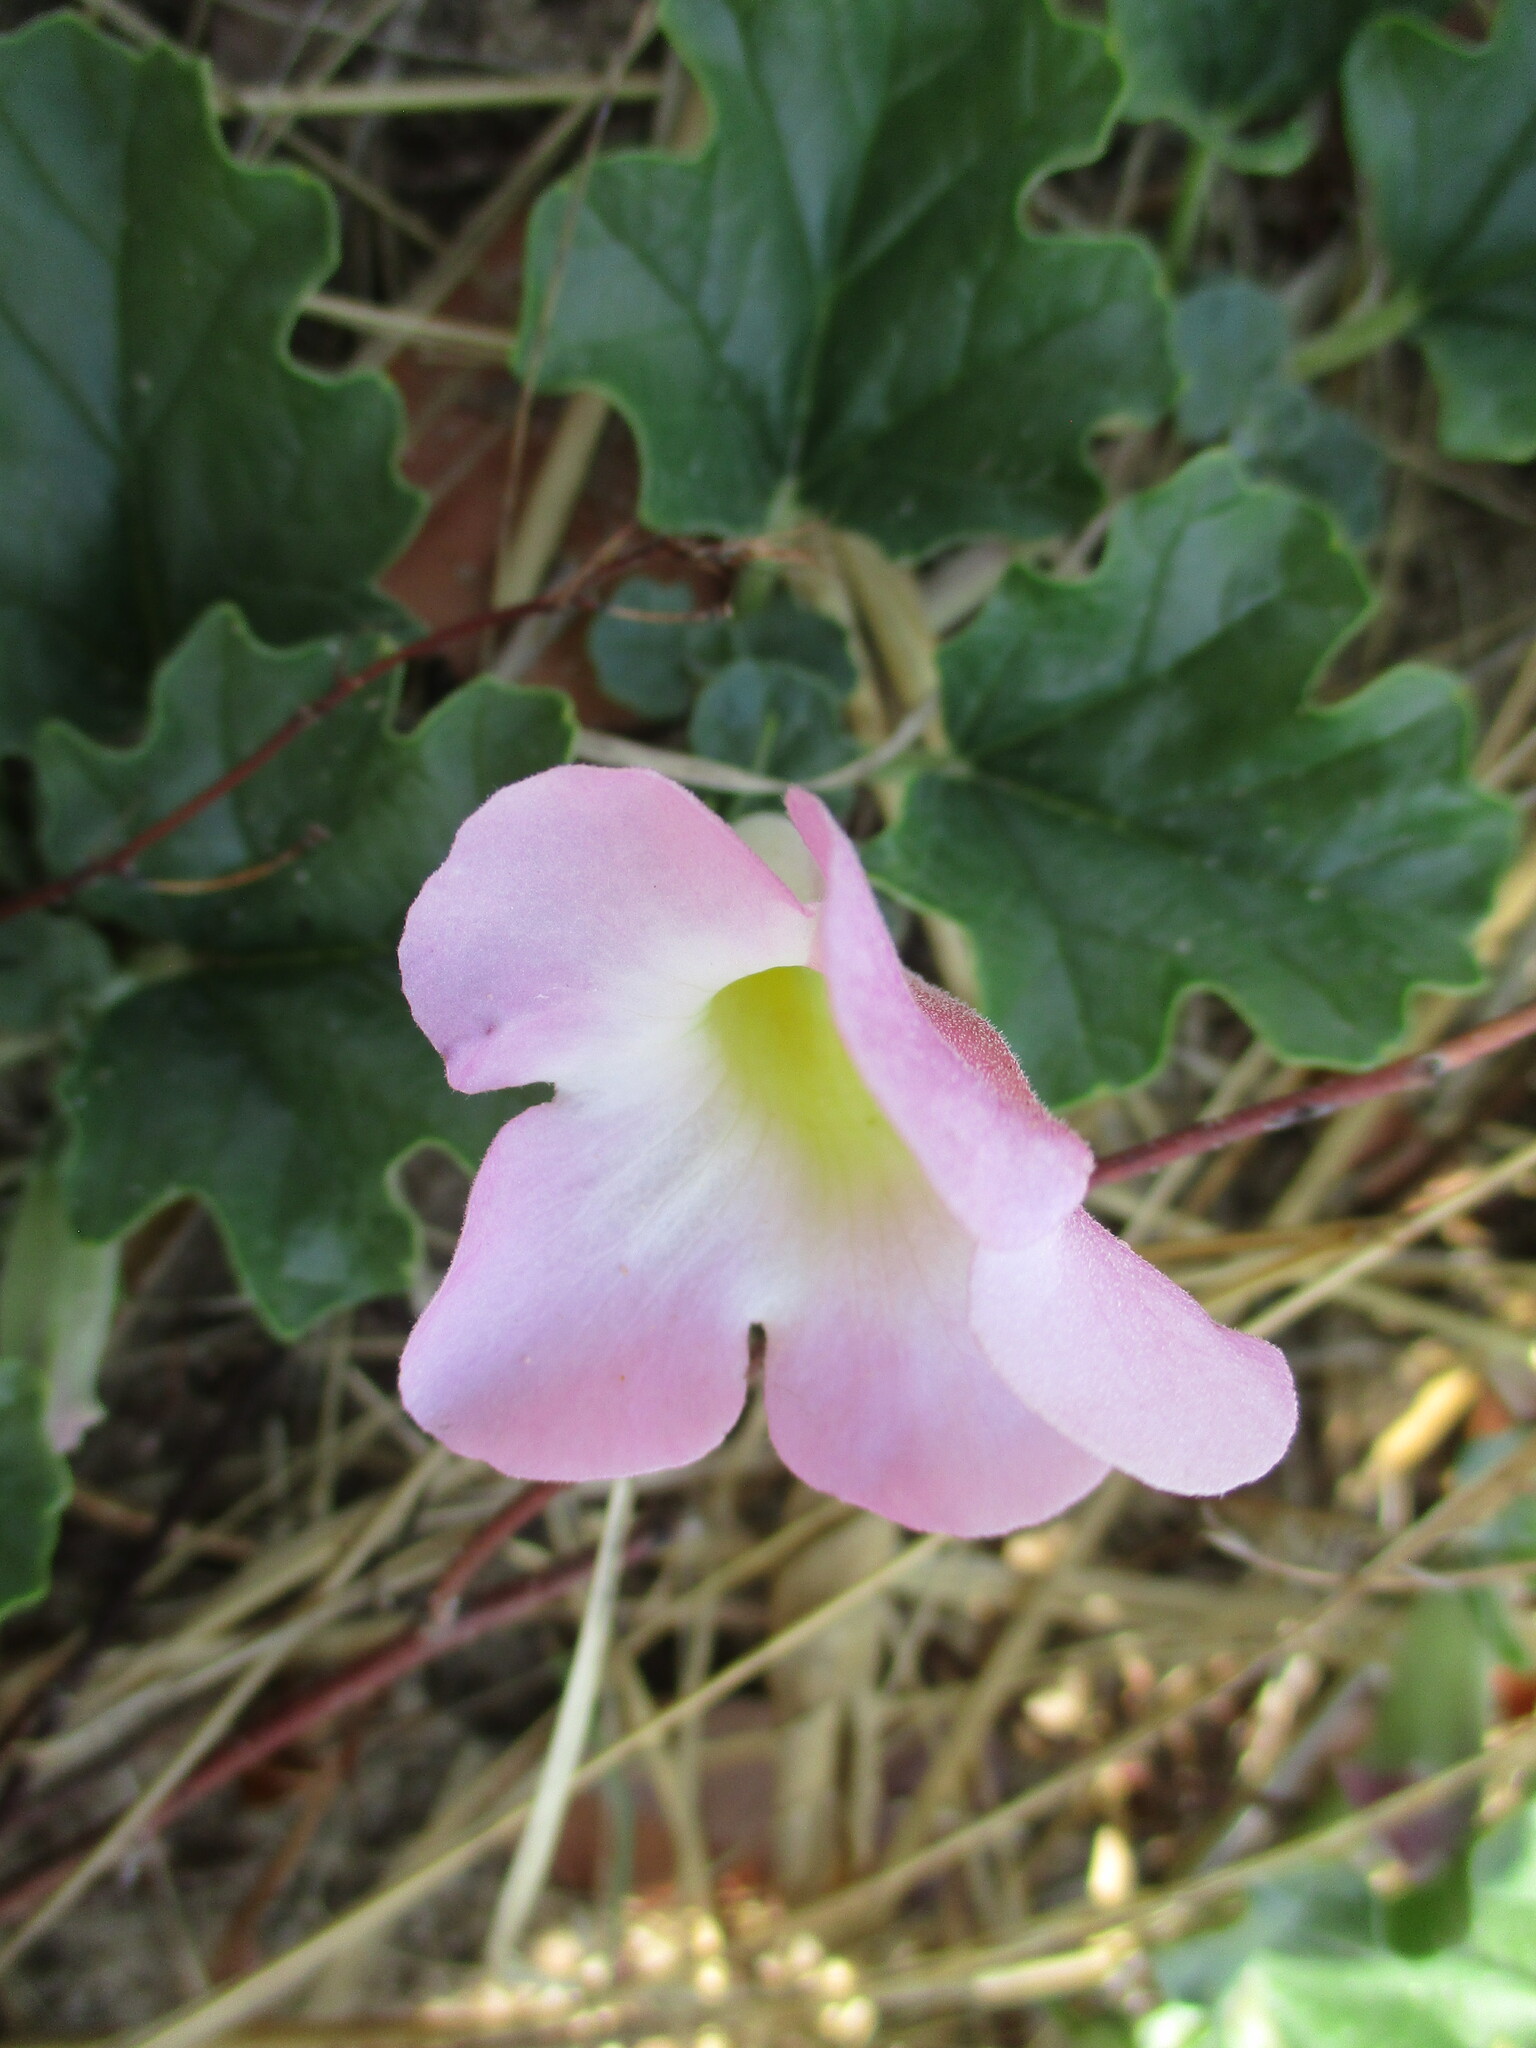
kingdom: Plantae
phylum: Tracheophyta
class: Magnoliopsida
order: Lamiales
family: Pedaliaceae
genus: Harpagophytum
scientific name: Harpagophytum zeyheri
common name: Grappleplant
